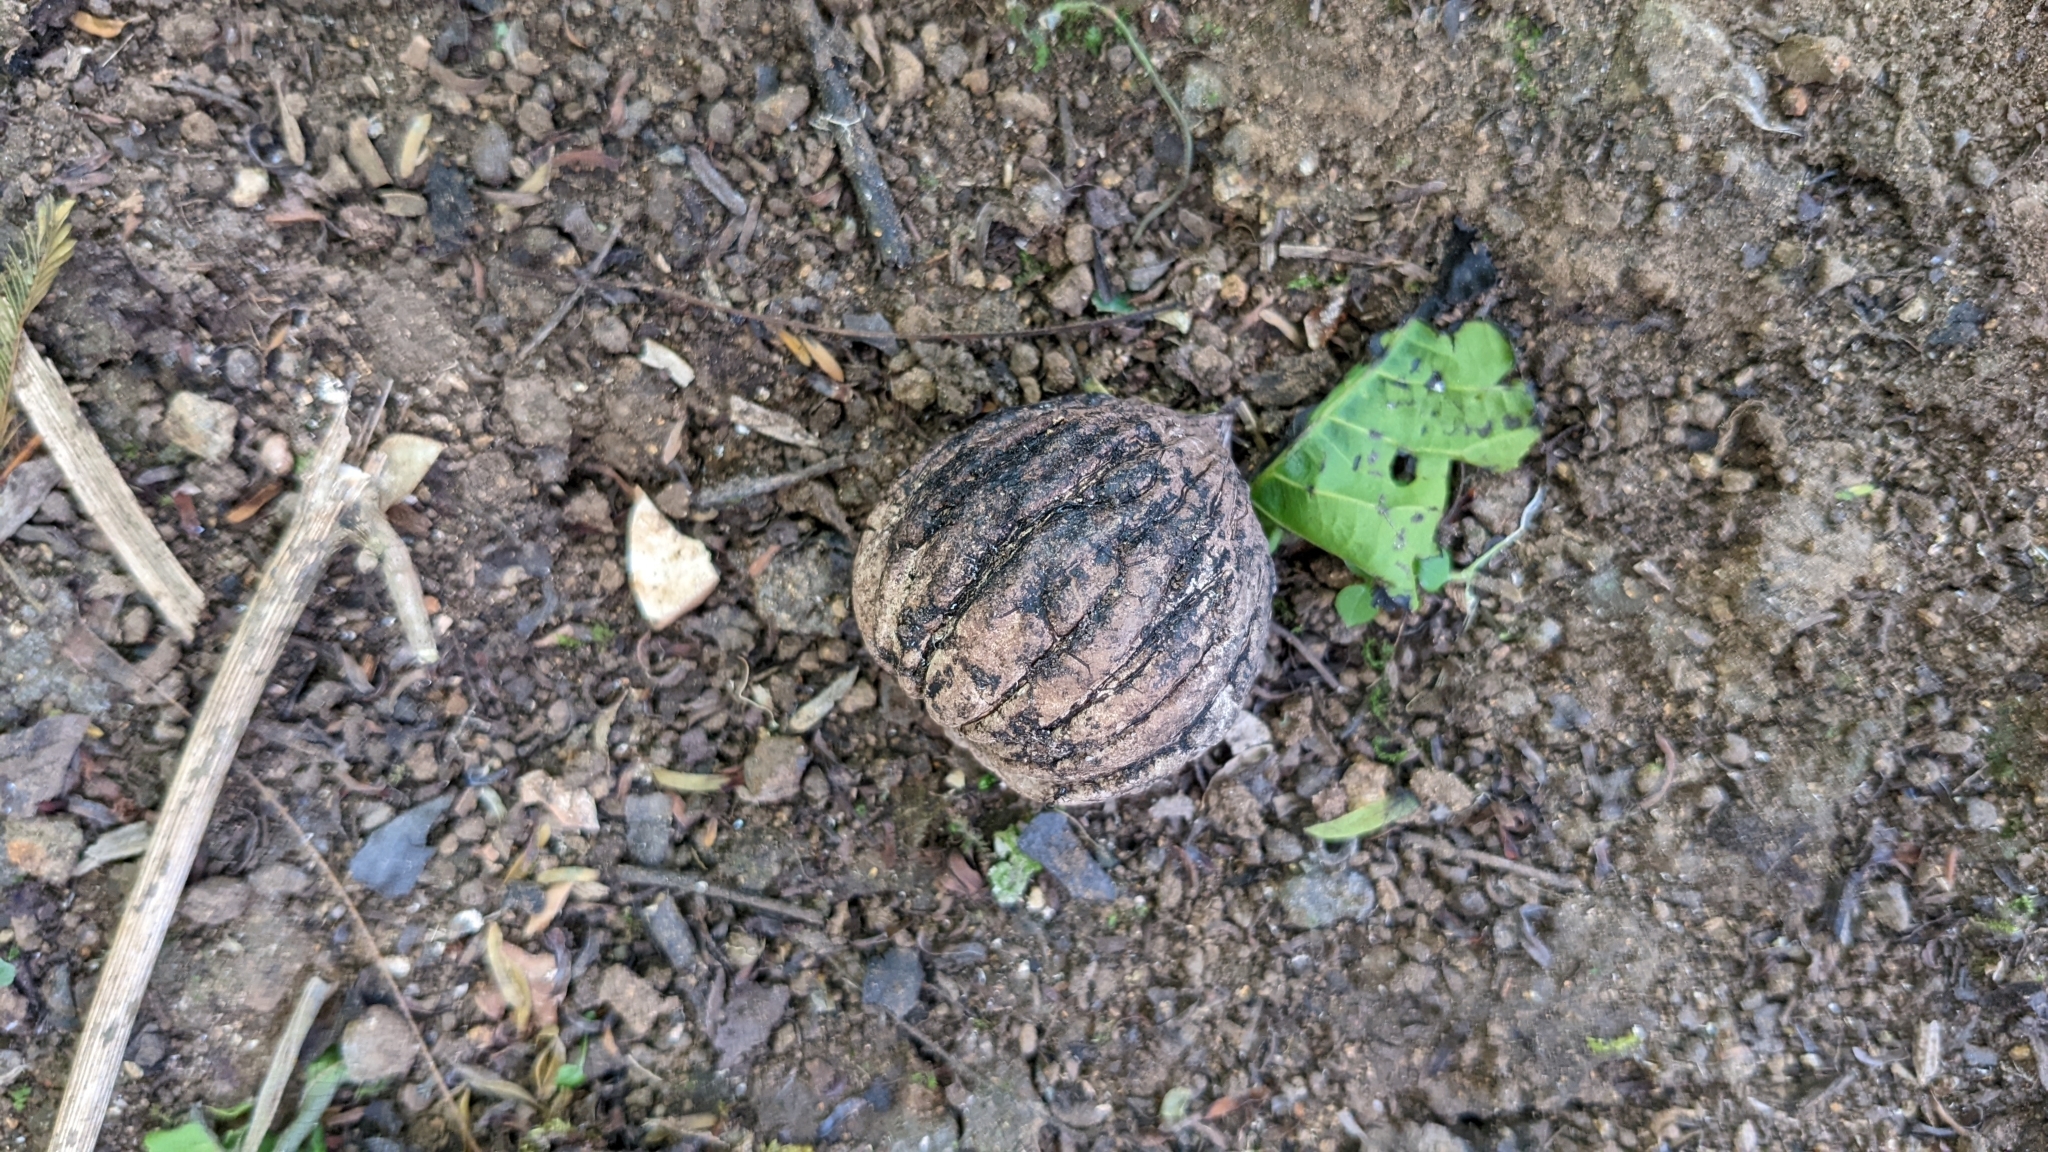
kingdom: Plantae
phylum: Tracheophyta
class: Magnoliopsida
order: Fagales
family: Juglandaceae
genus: Juglans
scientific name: Juglans olanchana
